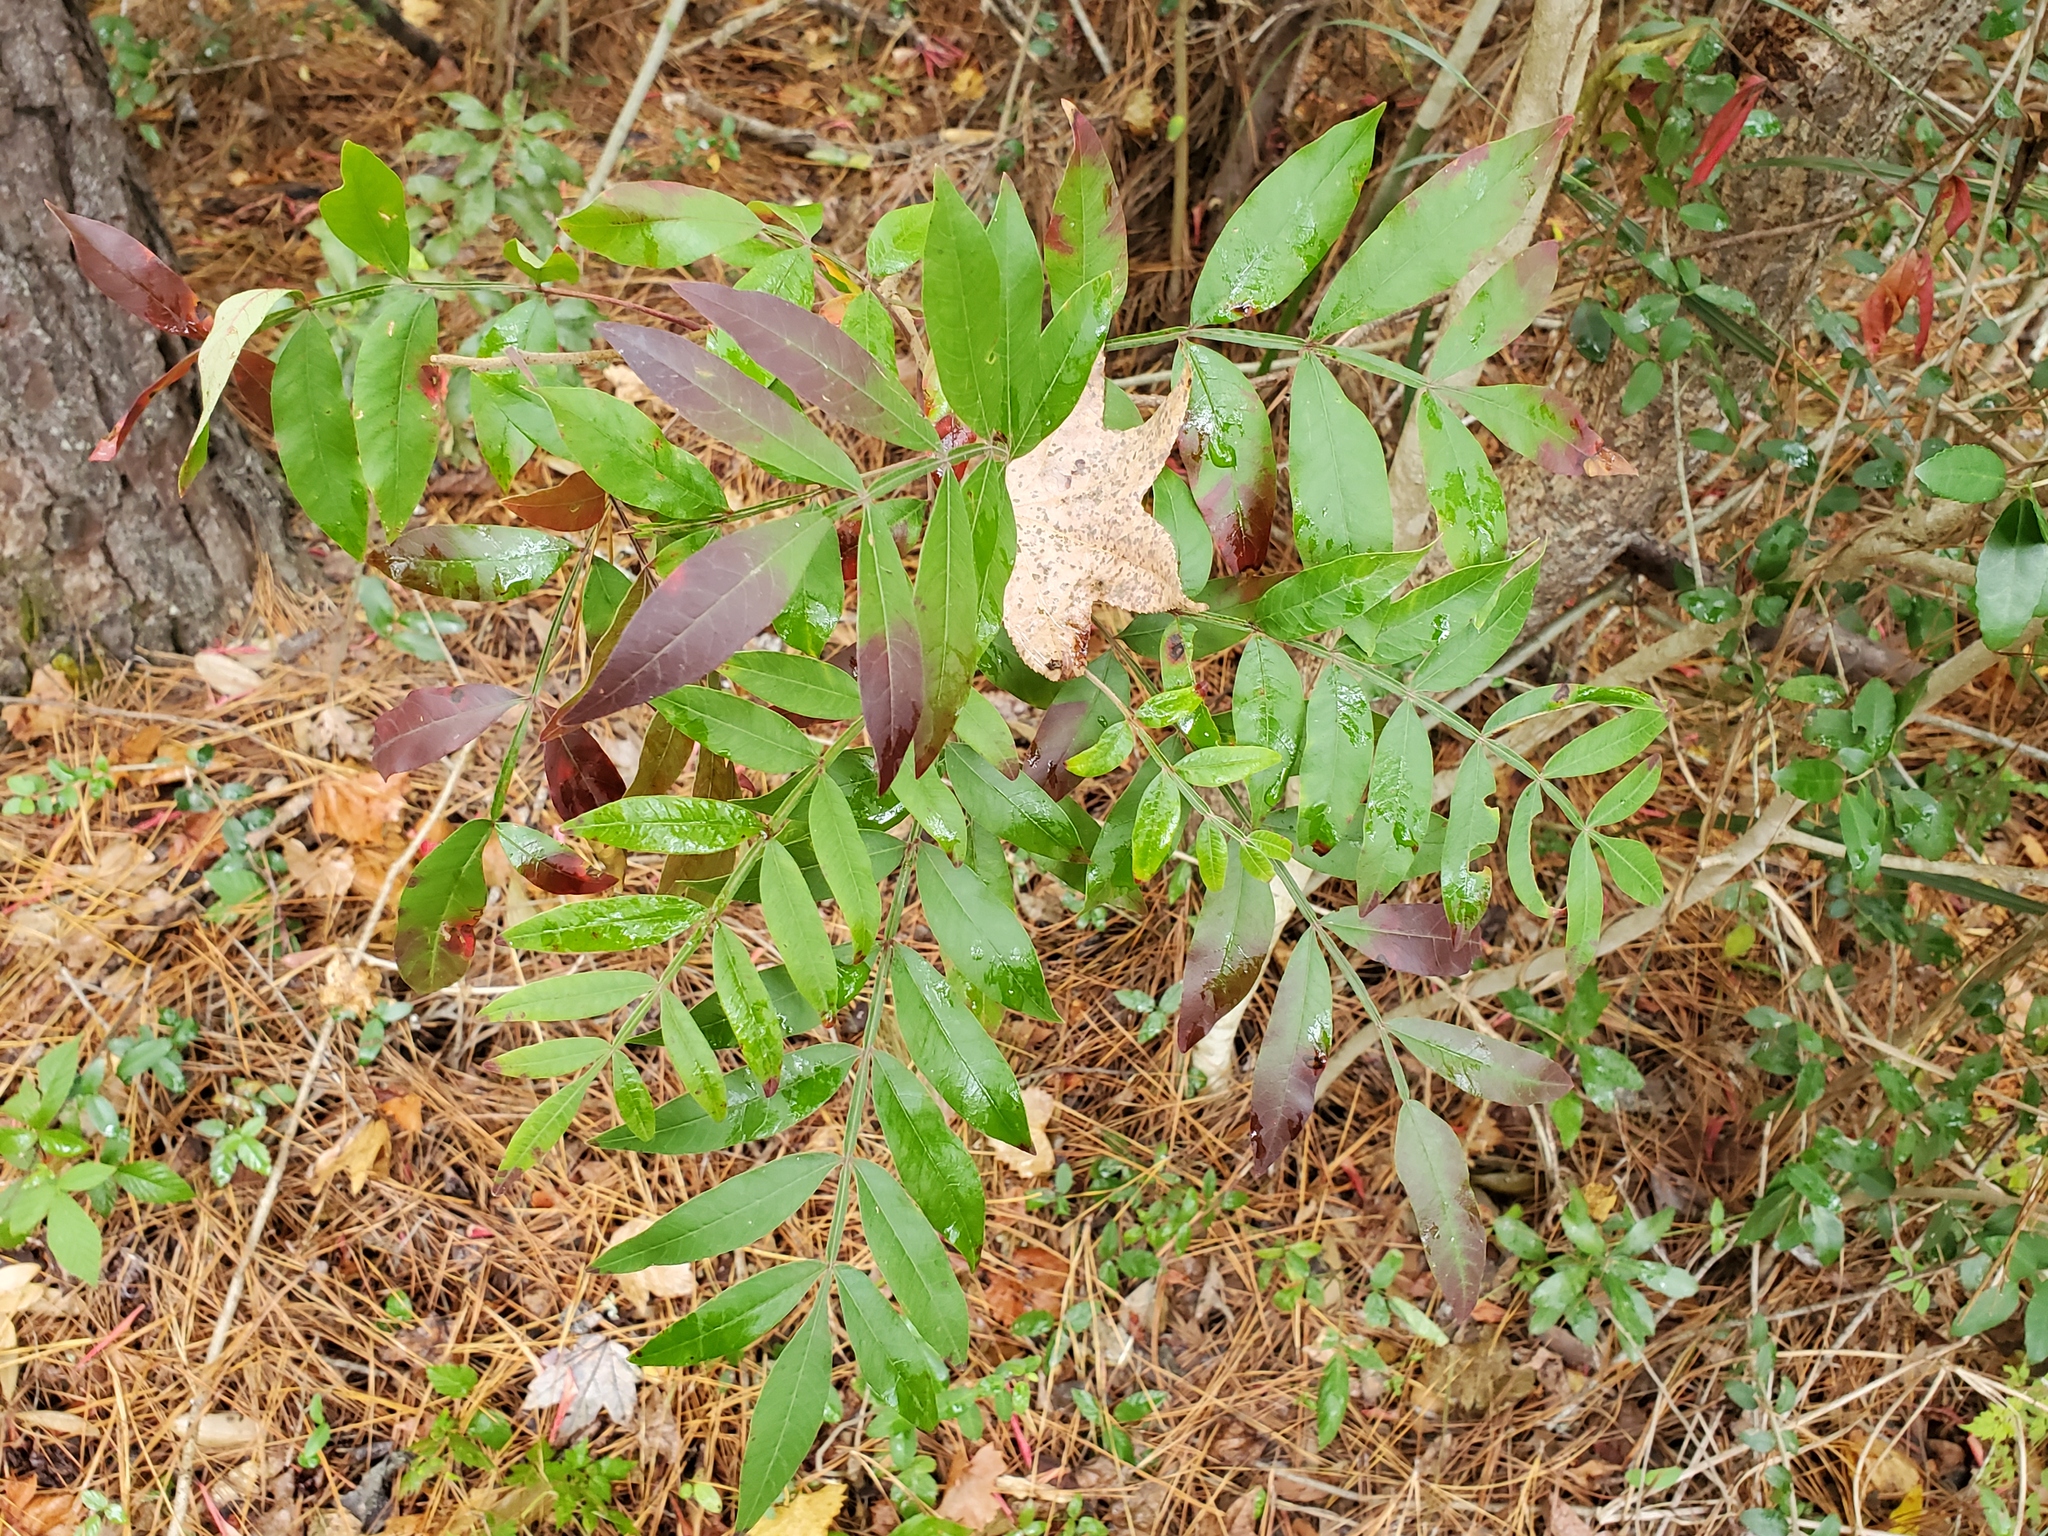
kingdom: Plantae
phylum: Tracheophyta
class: Magnoliopsida
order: Sapindales
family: Anacardiaceae
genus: Rhus
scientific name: Rhus copallina
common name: Shining sumac
